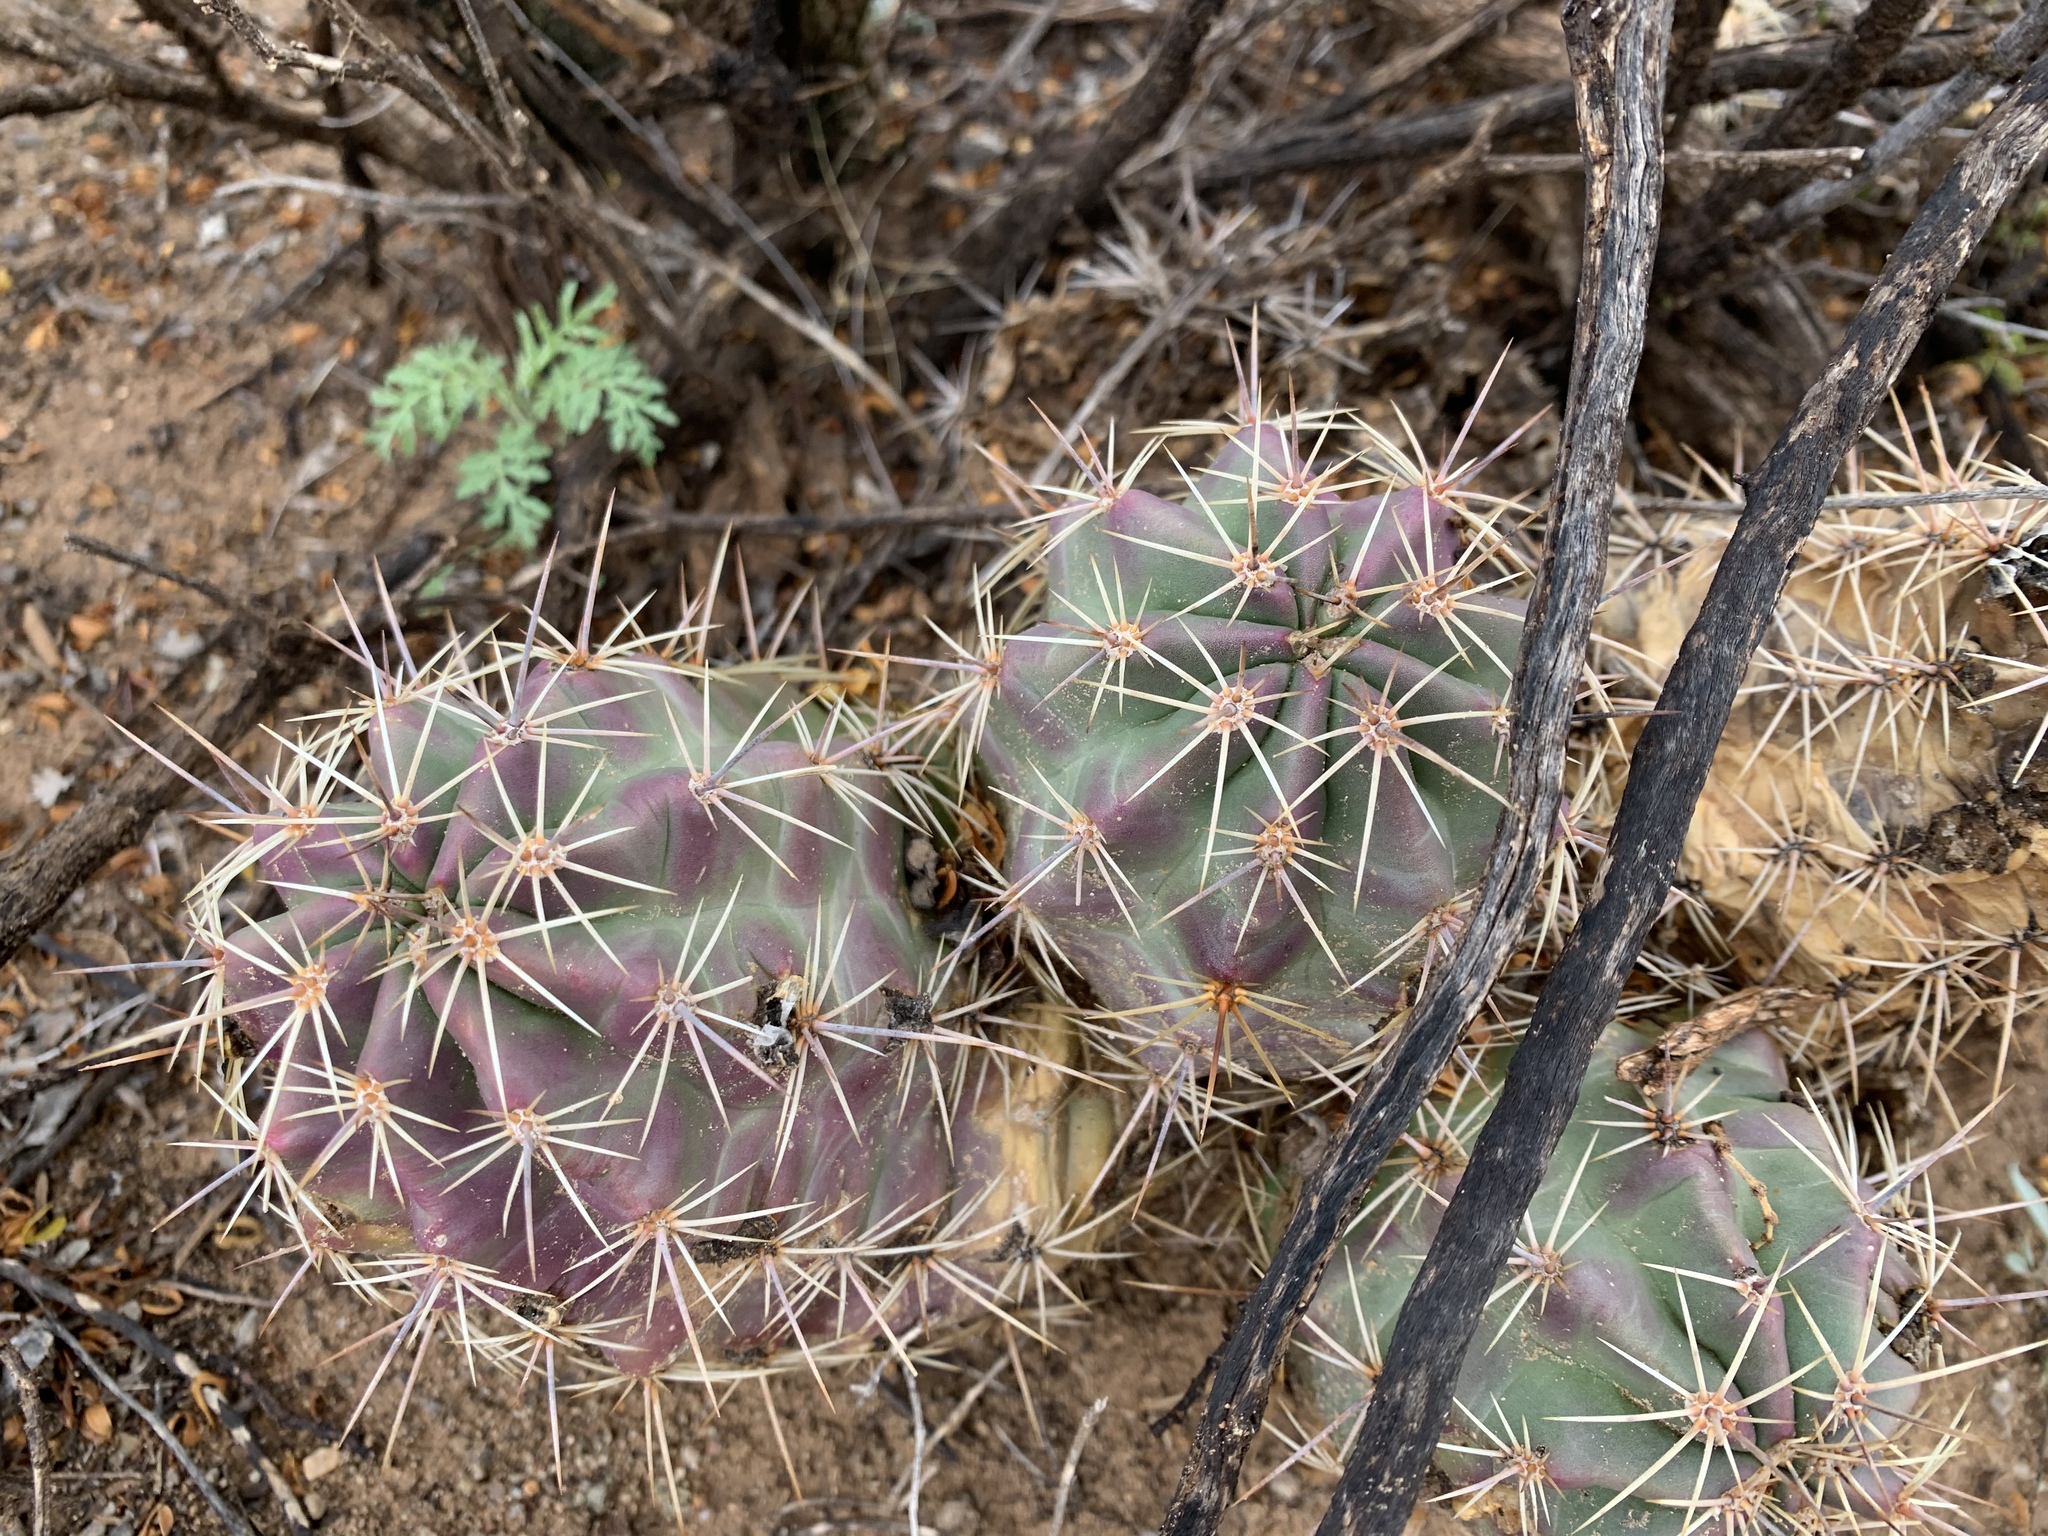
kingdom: Plantae
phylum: Tracheophyta
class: Magnoliopsida
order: Caryophyllales
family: Cactaceae
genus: Echinocereus
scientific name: Echinocereus coccineus
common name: Scarlet hedgehog cactus
